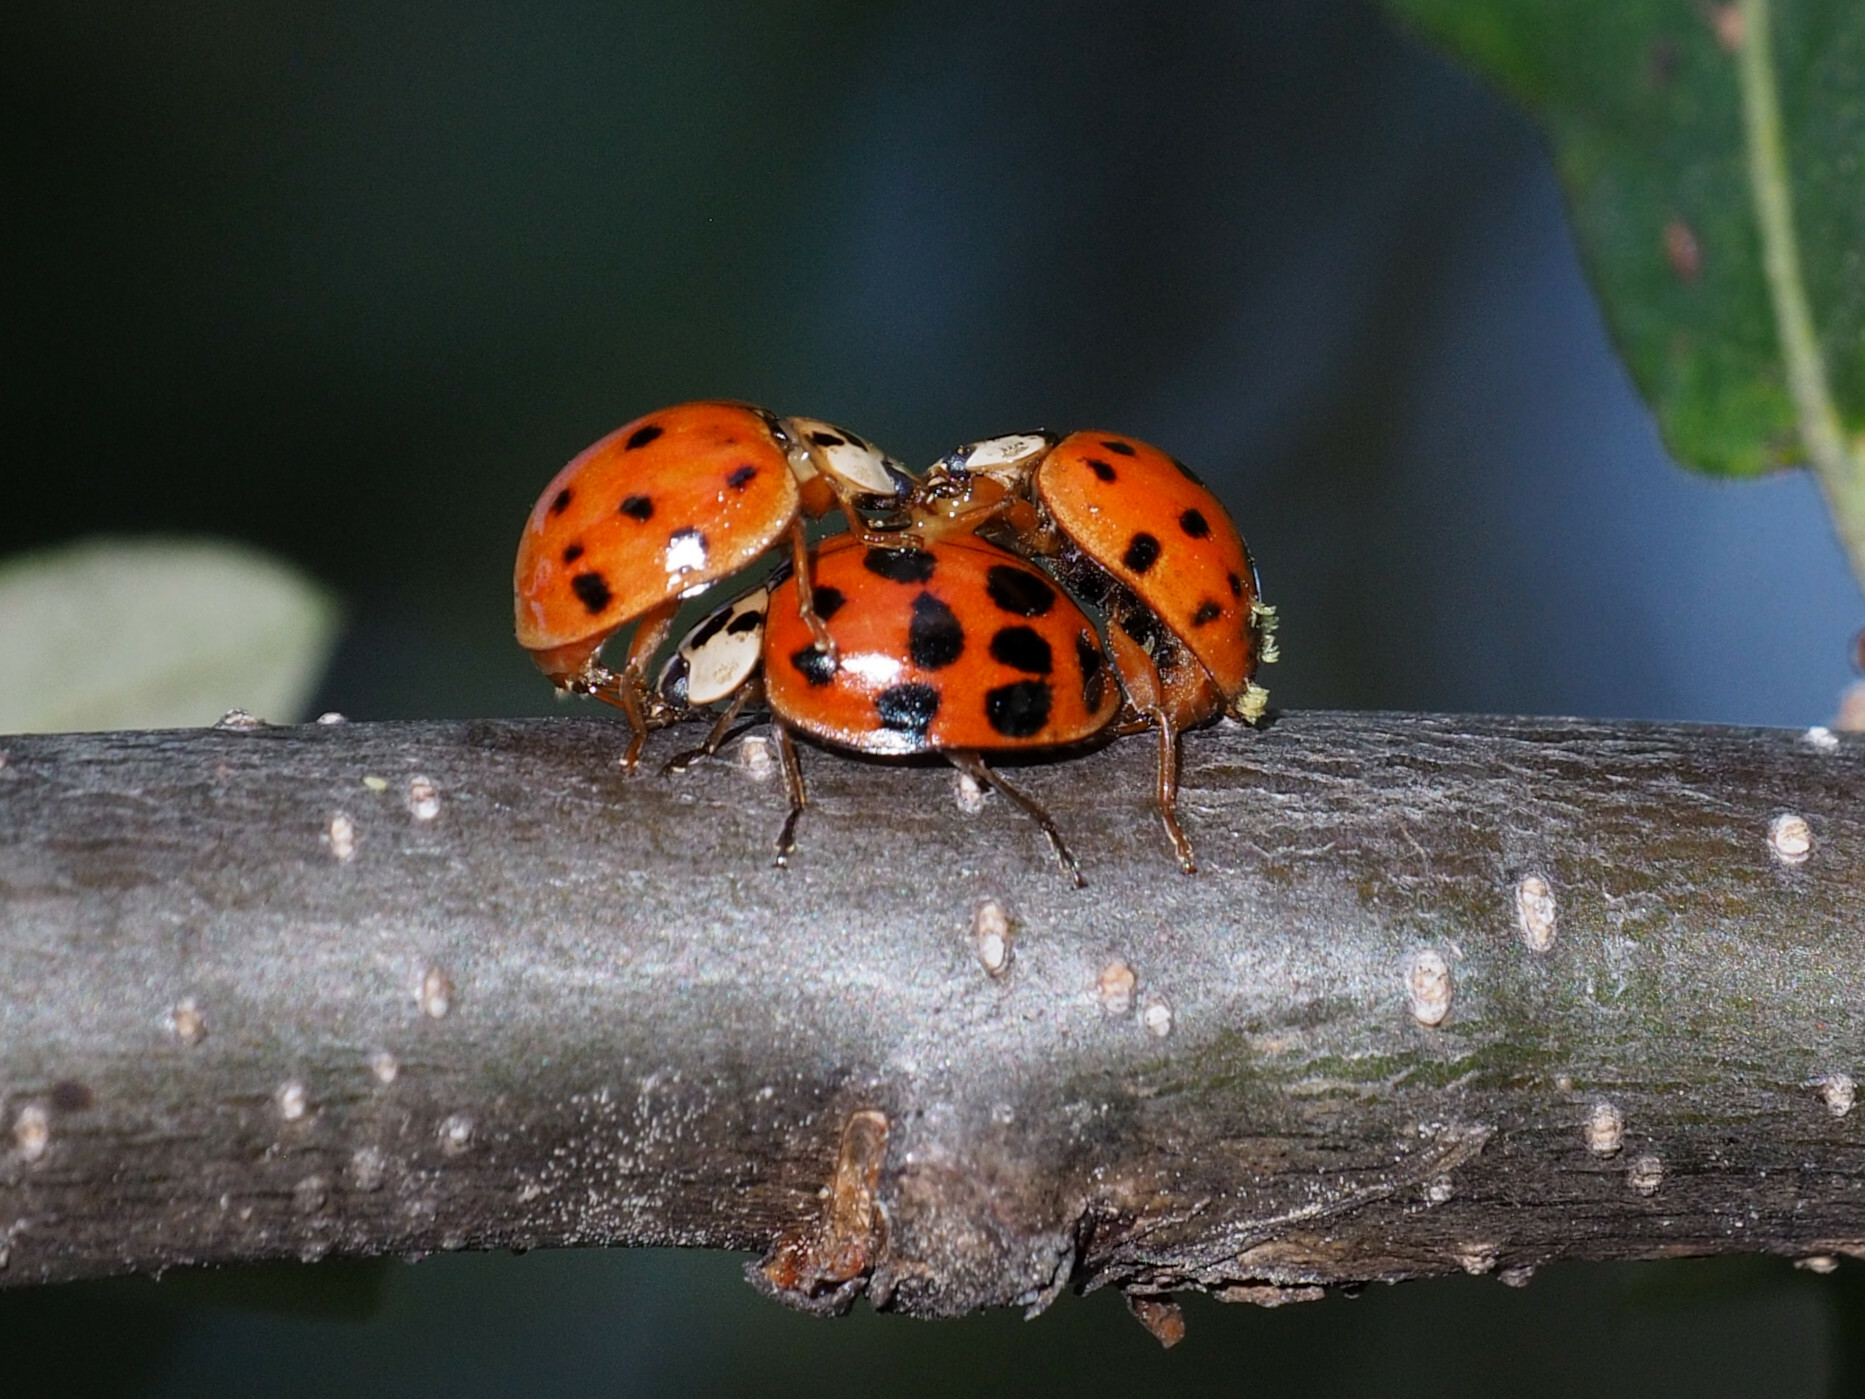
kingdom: Fungi
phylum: Ascomycota
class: Laboulbeniomycetes
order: Laboulbeniales
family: Laboulbeniaceae
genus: Hesperomyces
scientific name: Hesperomyces harmoniae
